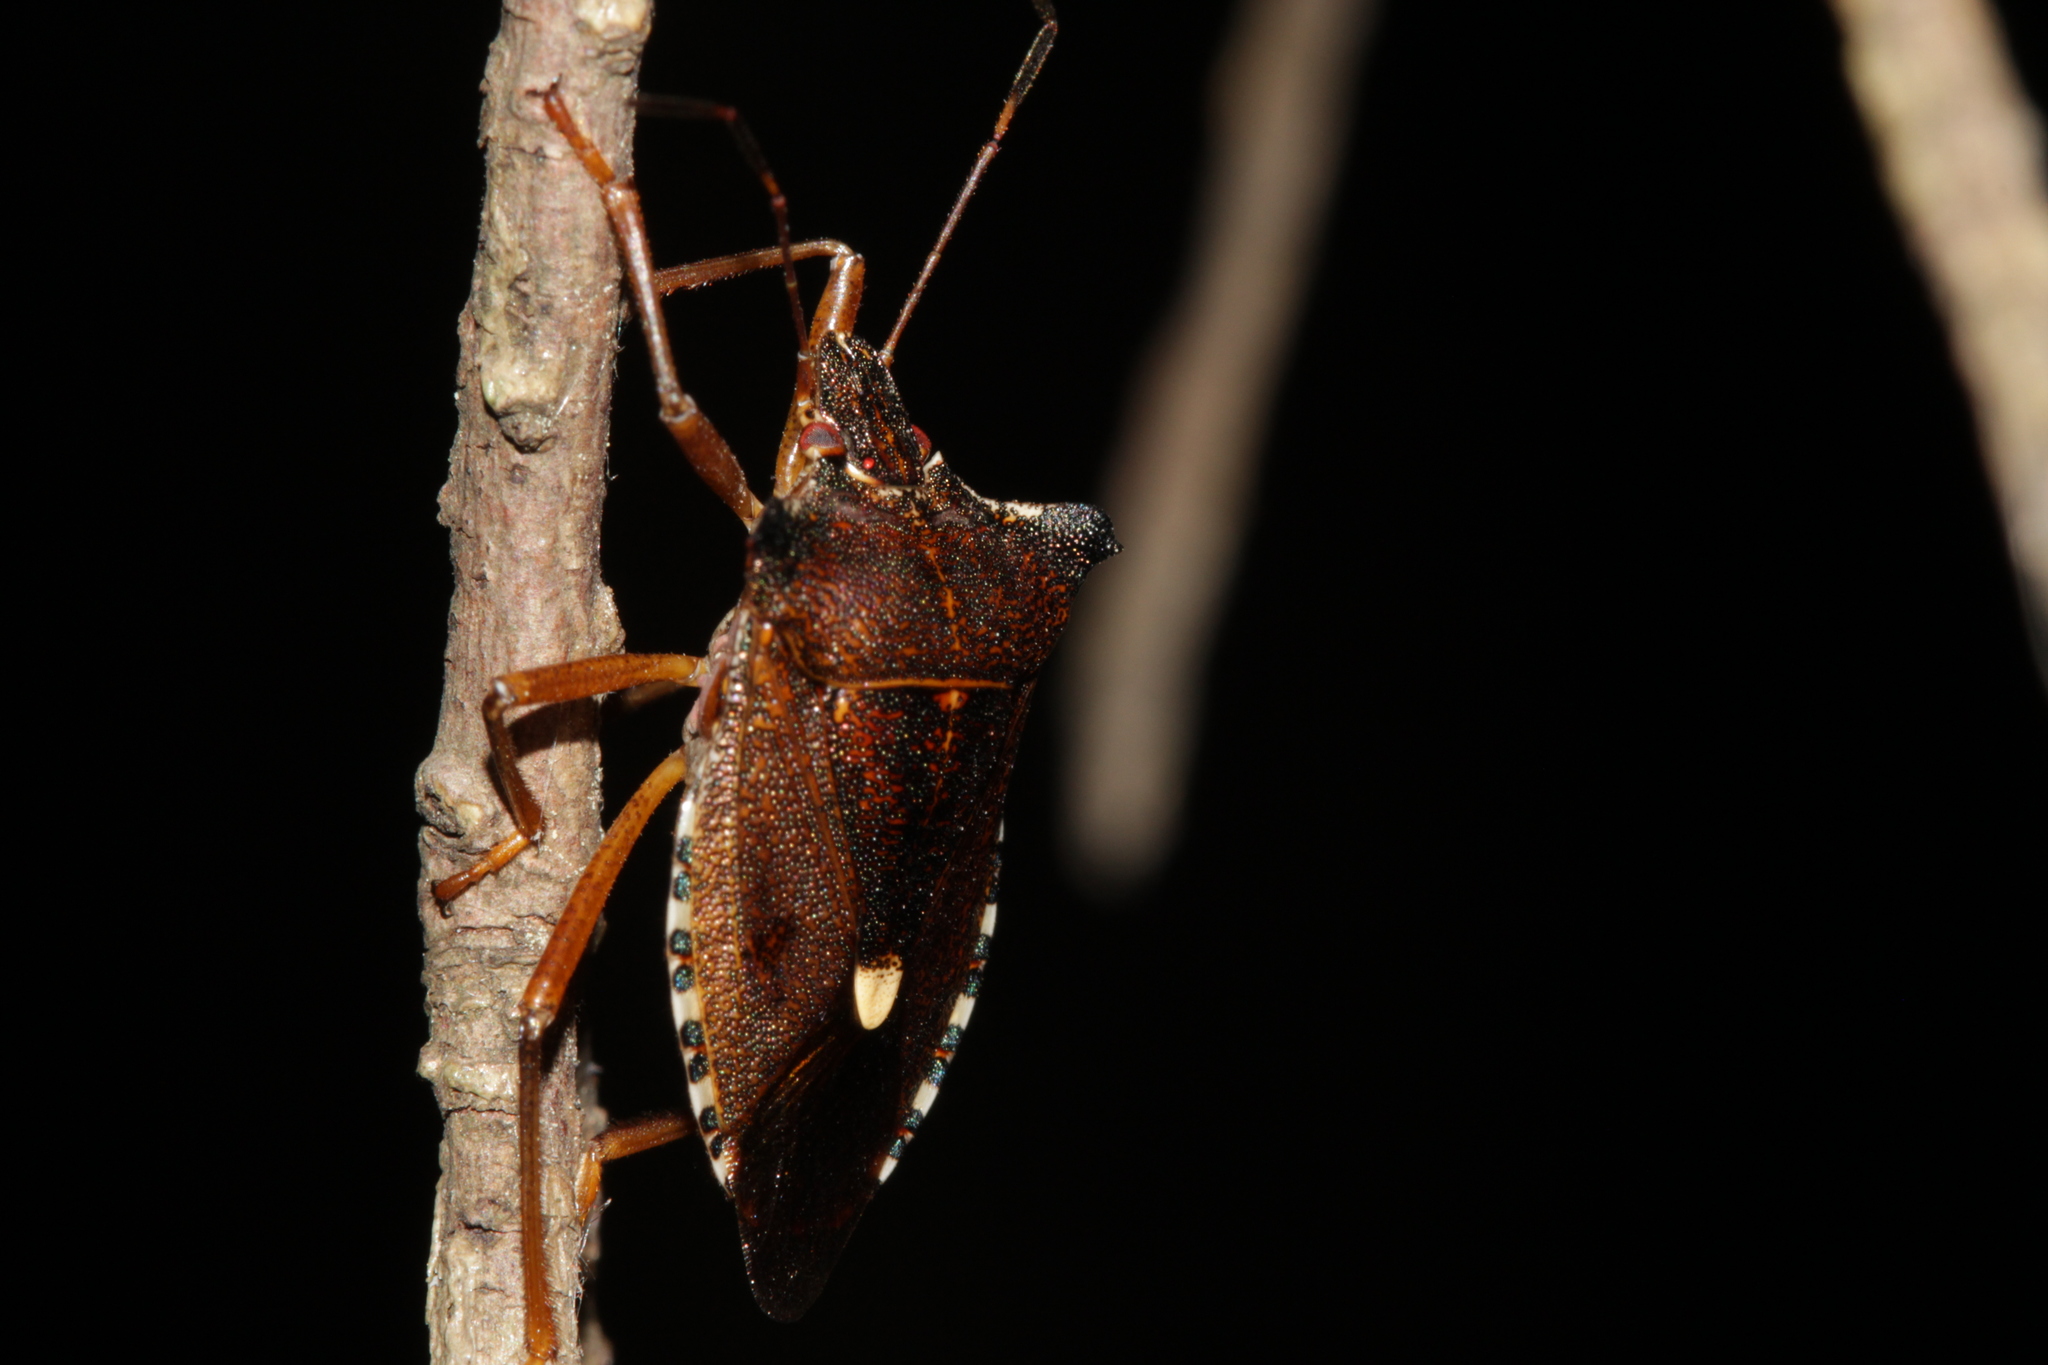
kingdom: Animalia
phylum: Arthropoda
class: Insecta
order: Hemiptera
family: Pentatomidae
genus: Pentatoma
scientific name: Pentatoma rufipes
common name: Forest bug
